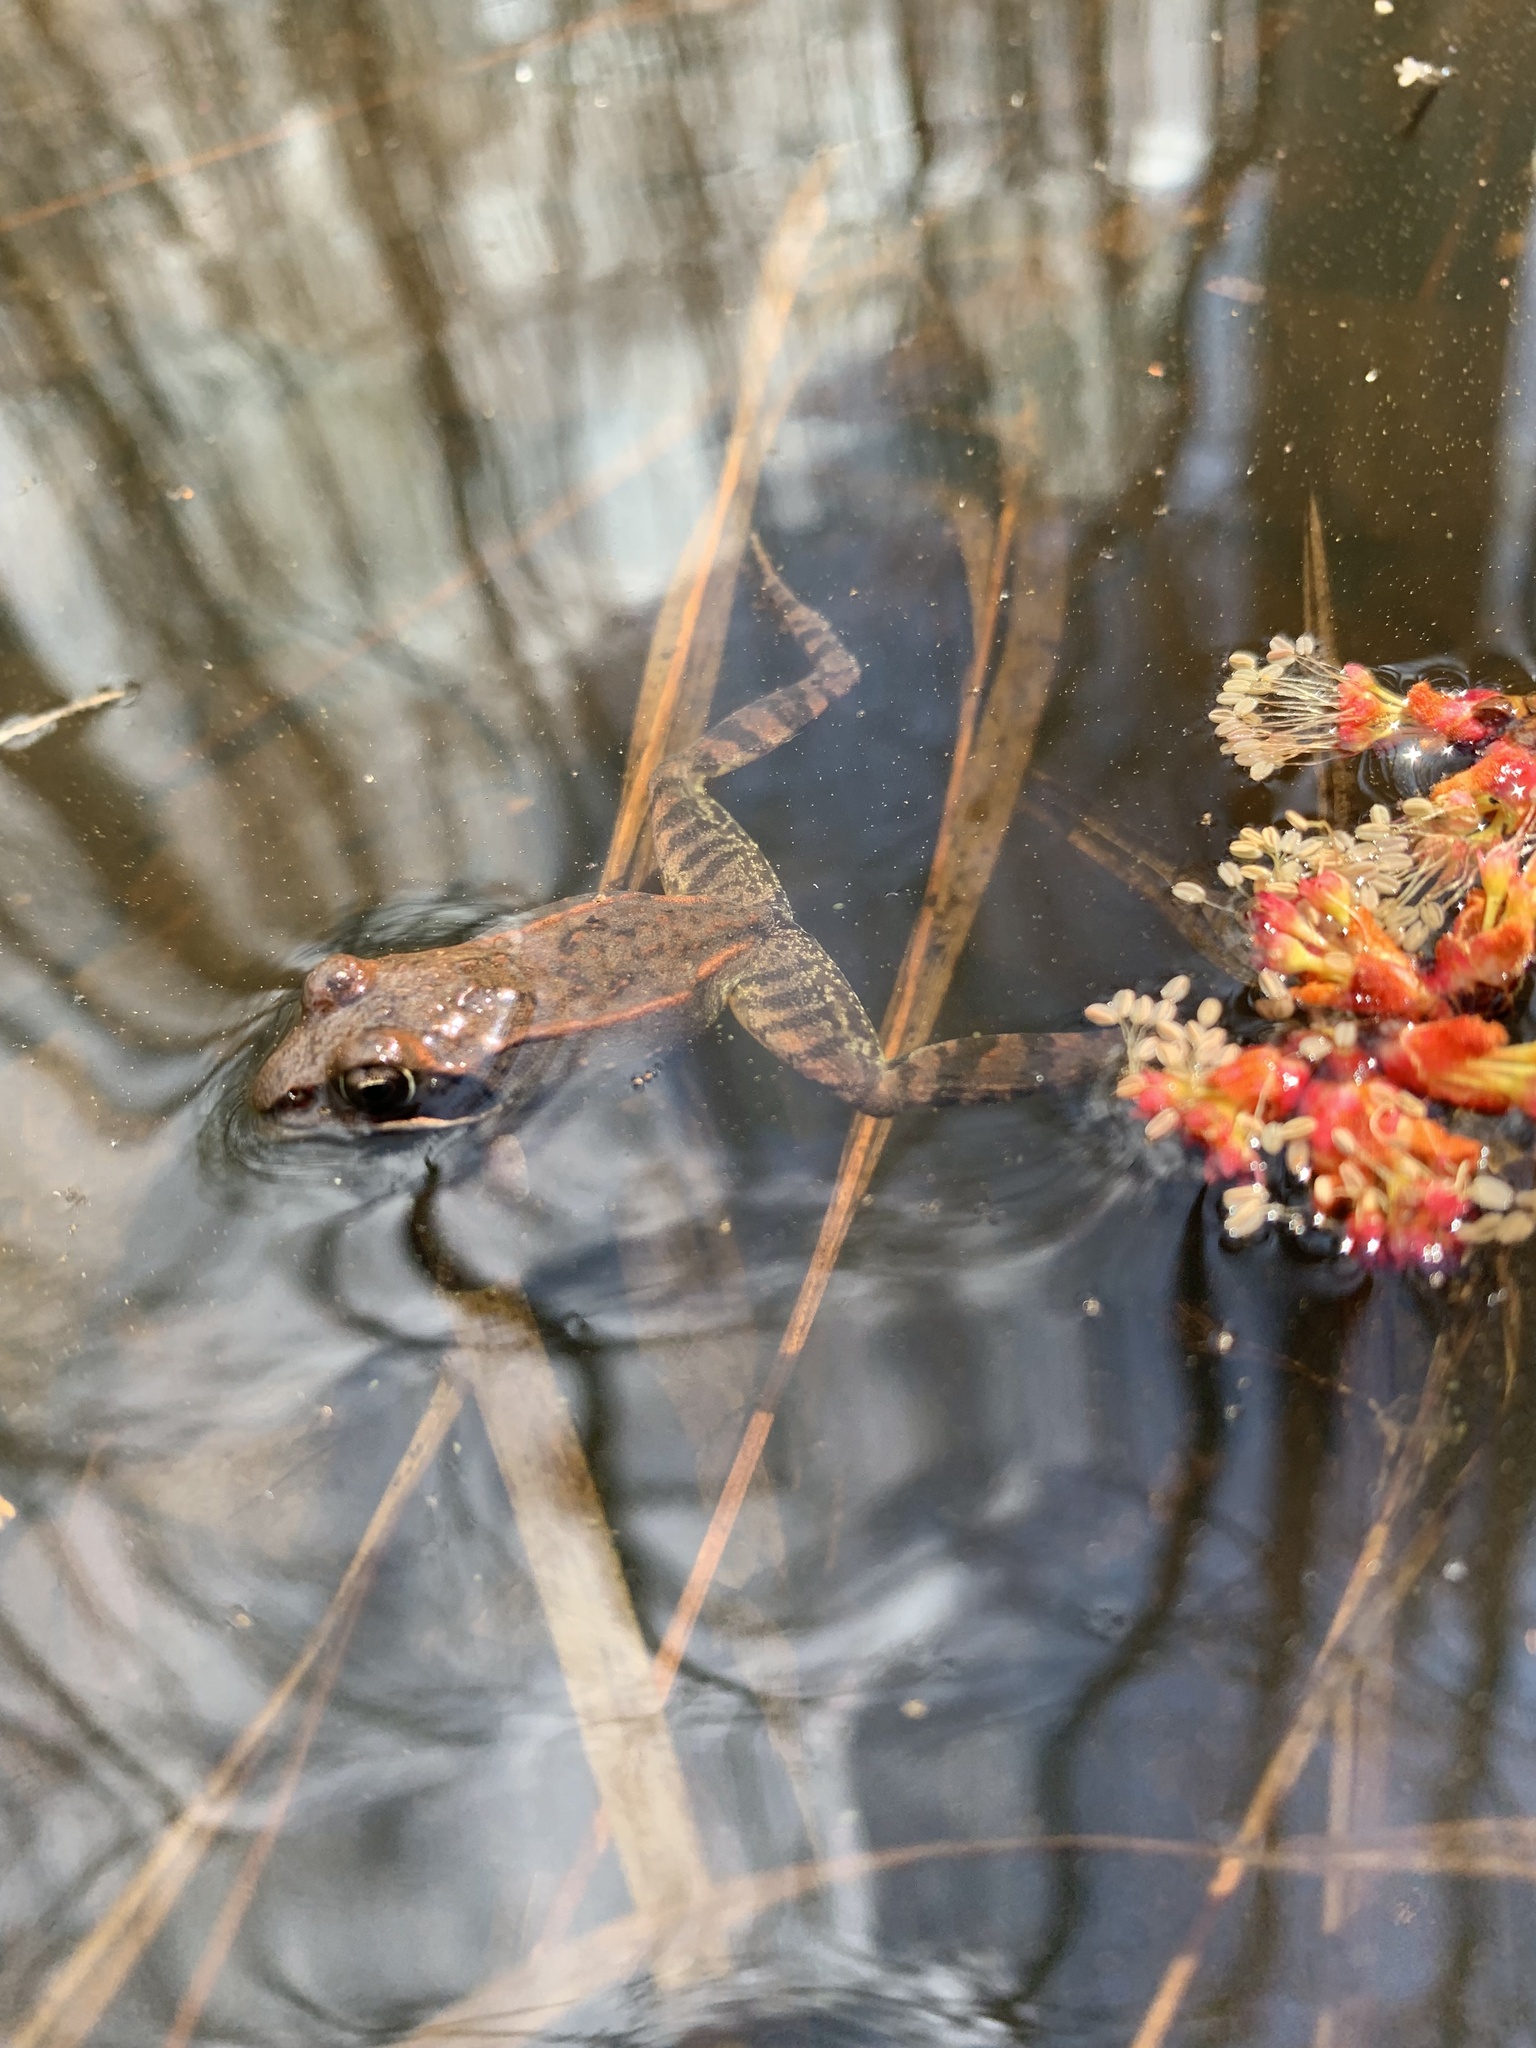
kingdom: Animalia
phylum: Chordata
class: Amphibia
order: Anura
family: Ranidae
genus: Lithobates
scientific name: Lithobates sylvaticus
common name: Wood frog
